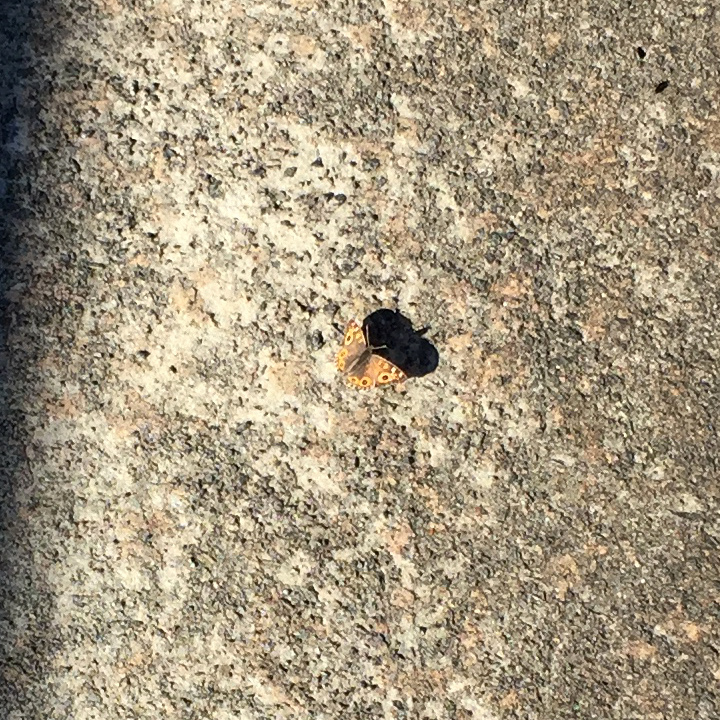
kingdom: Animalia
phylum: Arthropoda
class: Insecta
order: Lepidoptera
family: Nymphalidae
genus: Junonia
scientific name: Junonia villida
